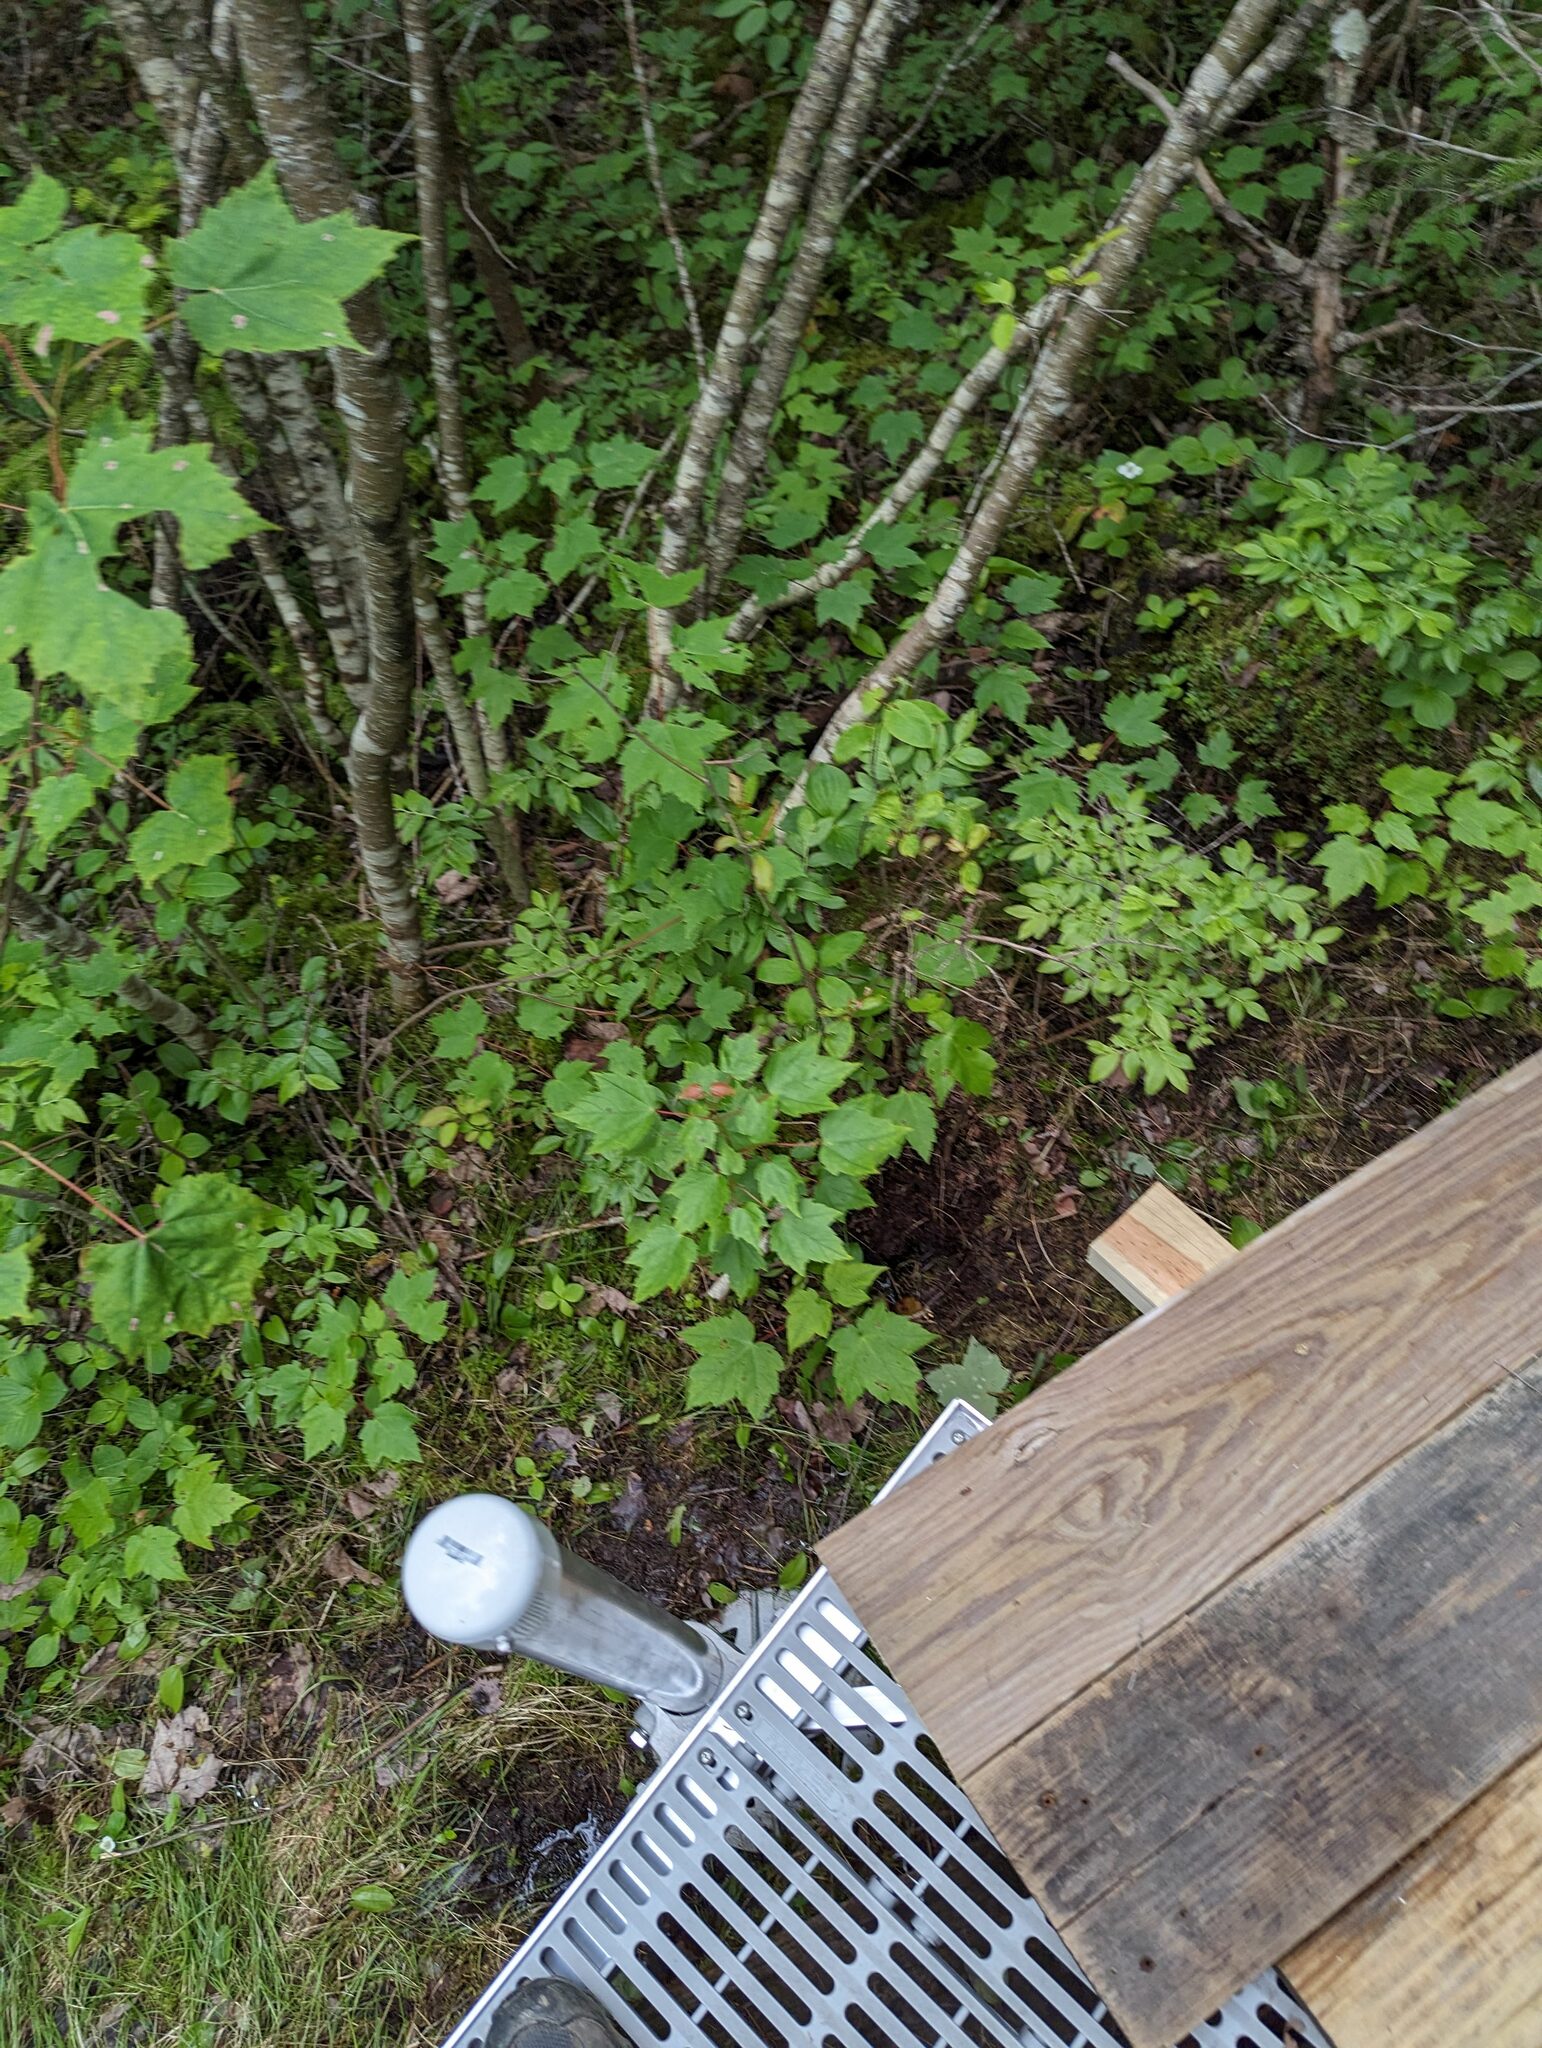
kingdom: Plantae
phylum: Tracheophyta
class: Magnoliopsida
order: Sapindales
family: Sapindaceae
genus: Acer
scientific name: Acer rubrum
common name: Red maple
